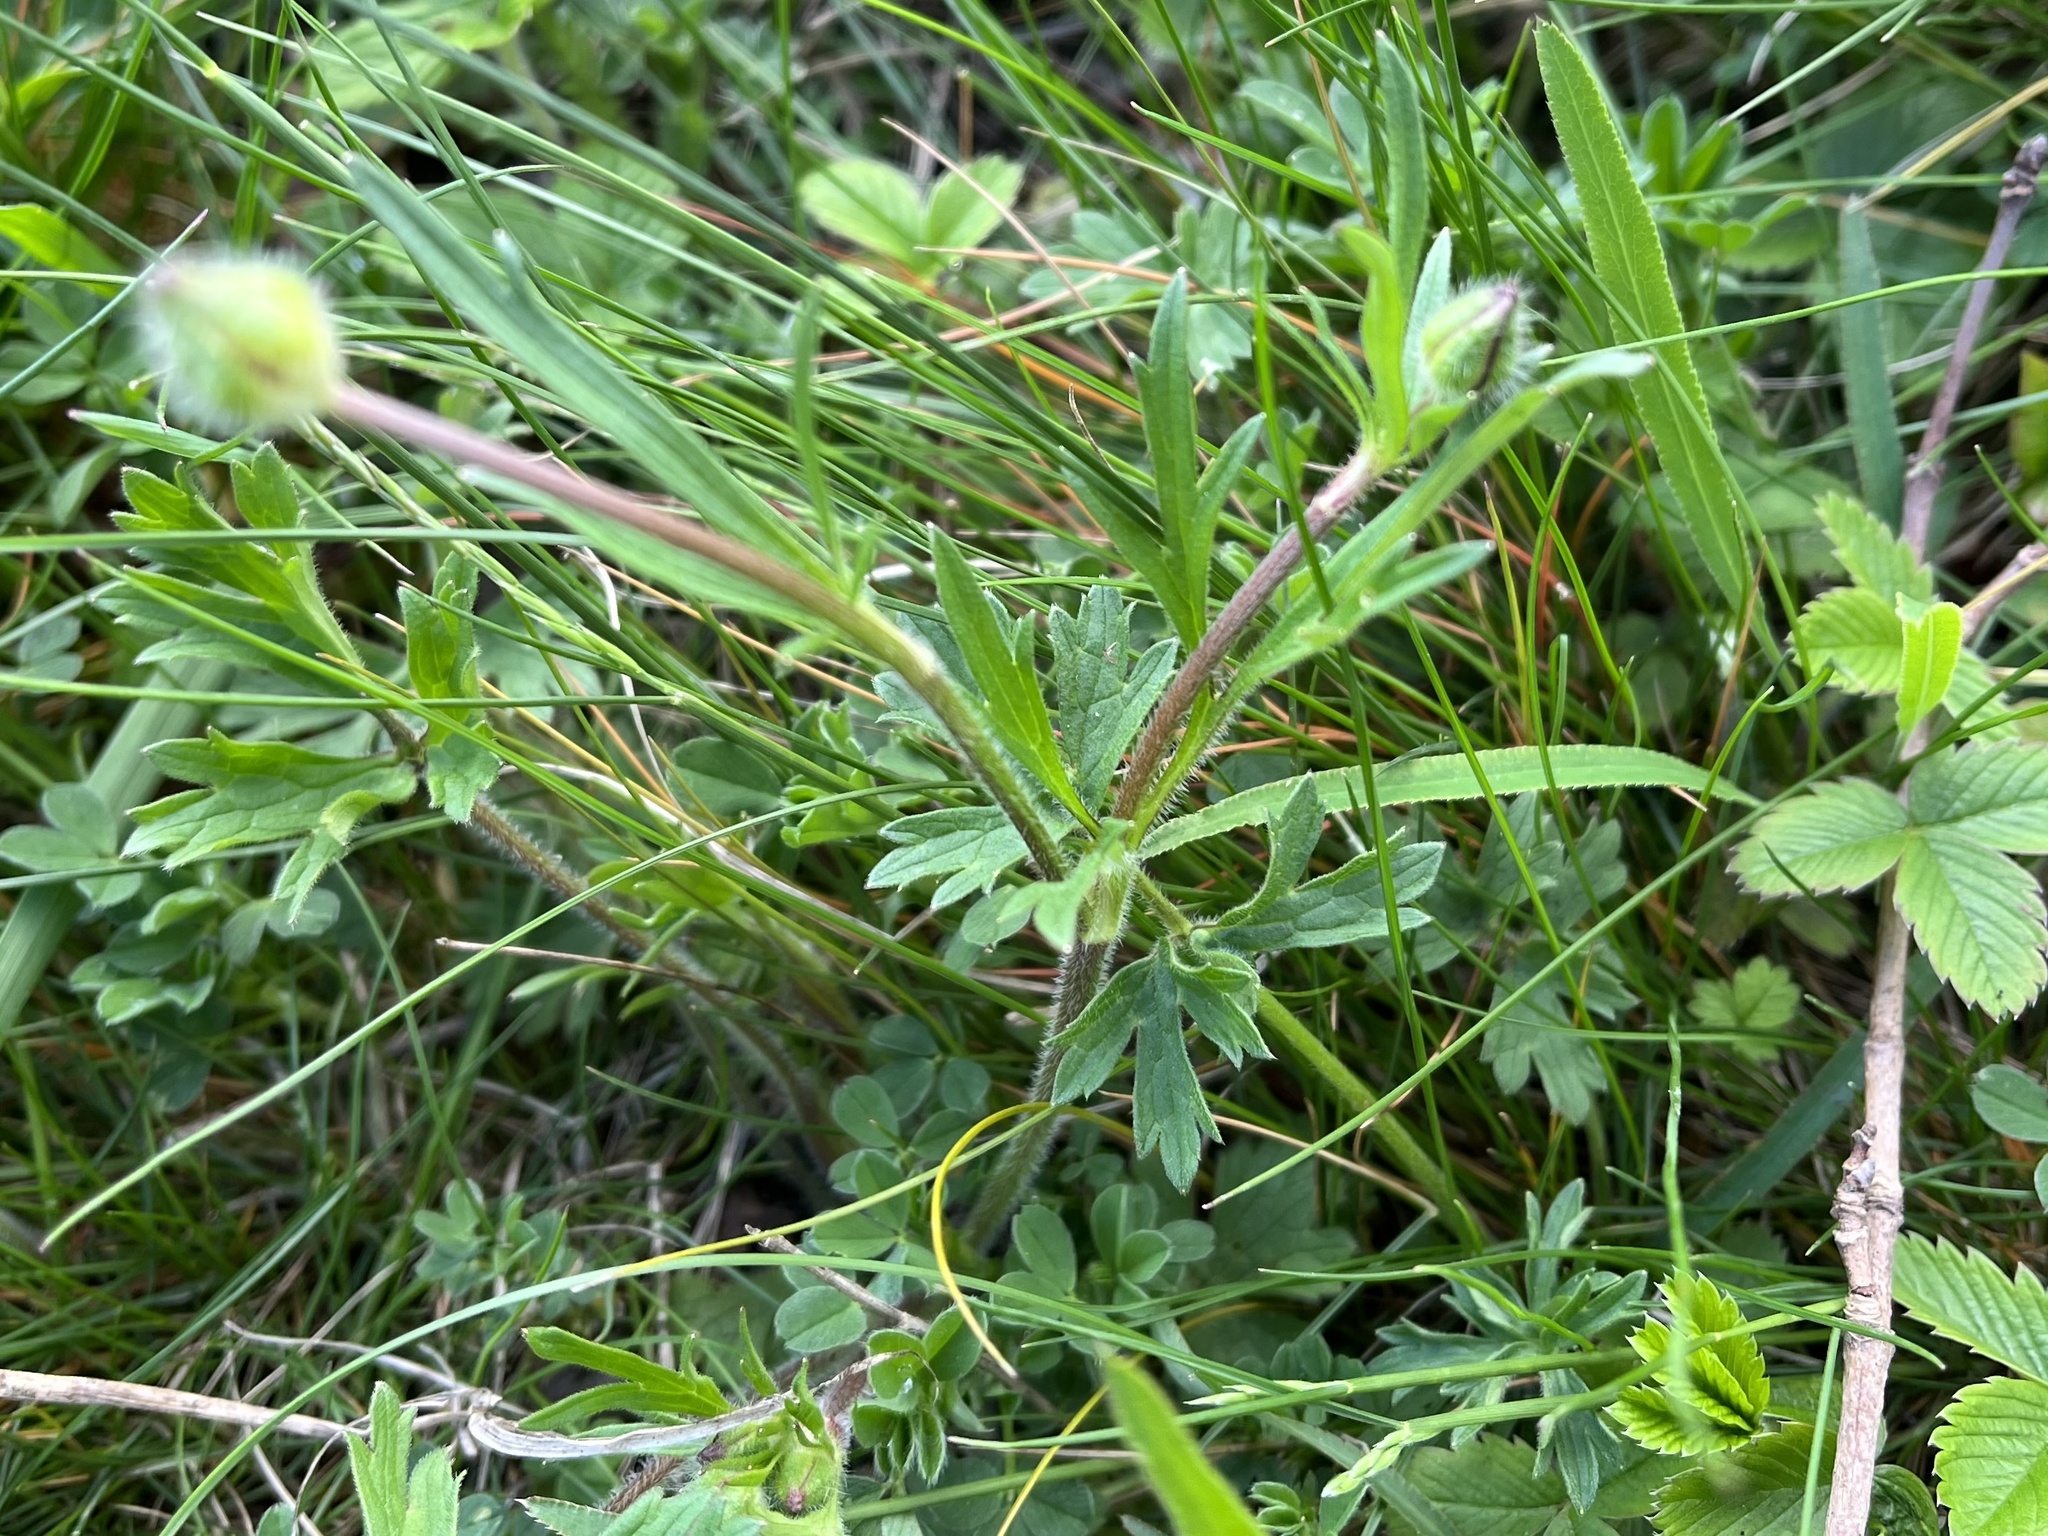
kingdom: Plantae
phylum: Tracheophyta
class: Magnoliopsida
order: Ranunculales
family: Ranunculaceae
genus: Ranunculus
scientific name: Ranunculus bulbosus
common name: Bulbous buttercup
